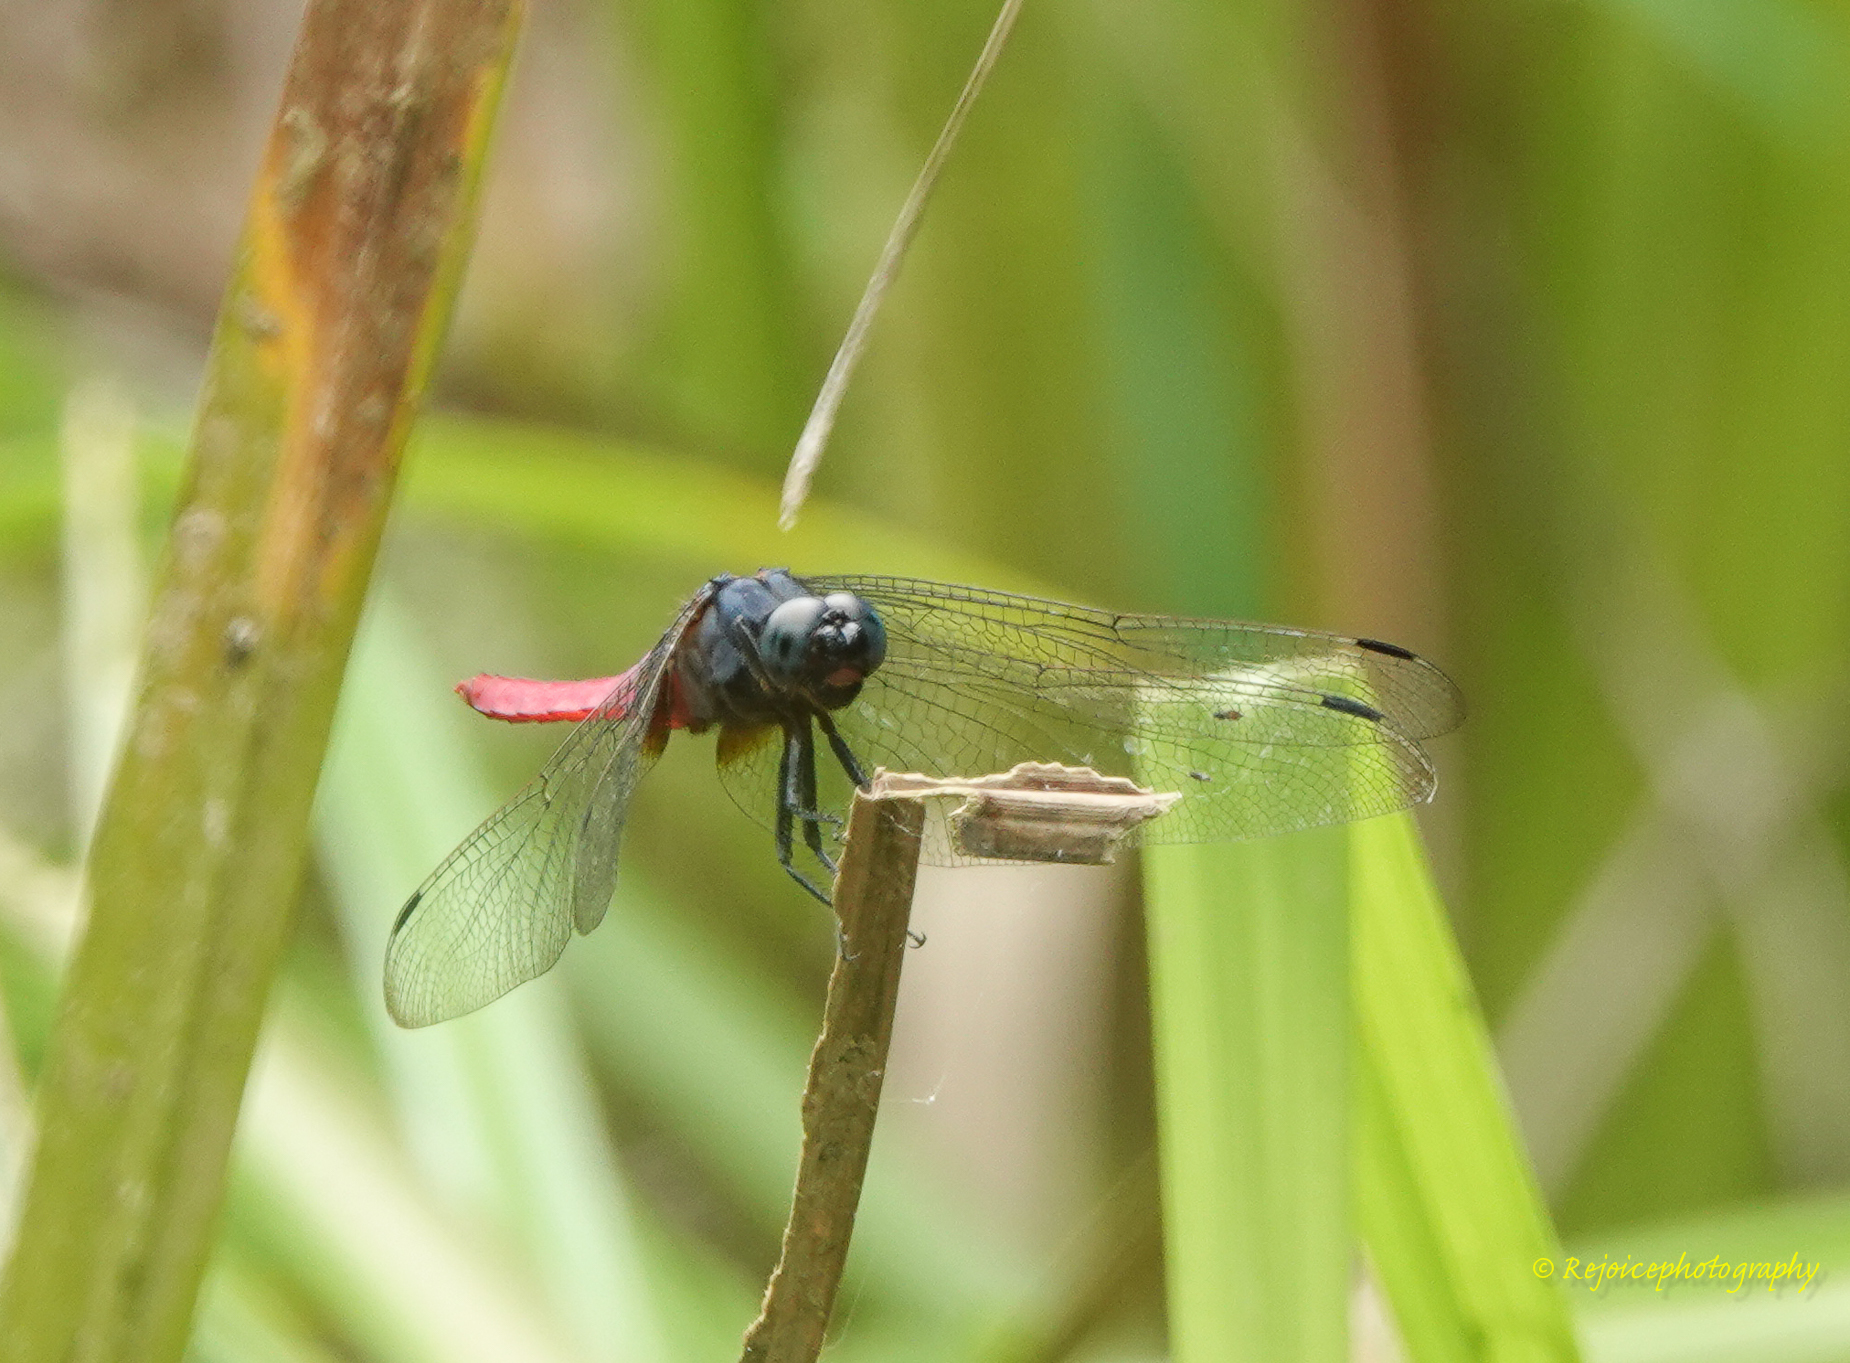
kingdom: Animalia
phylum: Arthropoda
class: Insecta
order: Odonata
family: Libellulidae
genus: Orthetrum
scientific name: Orthetrum pruinosum
